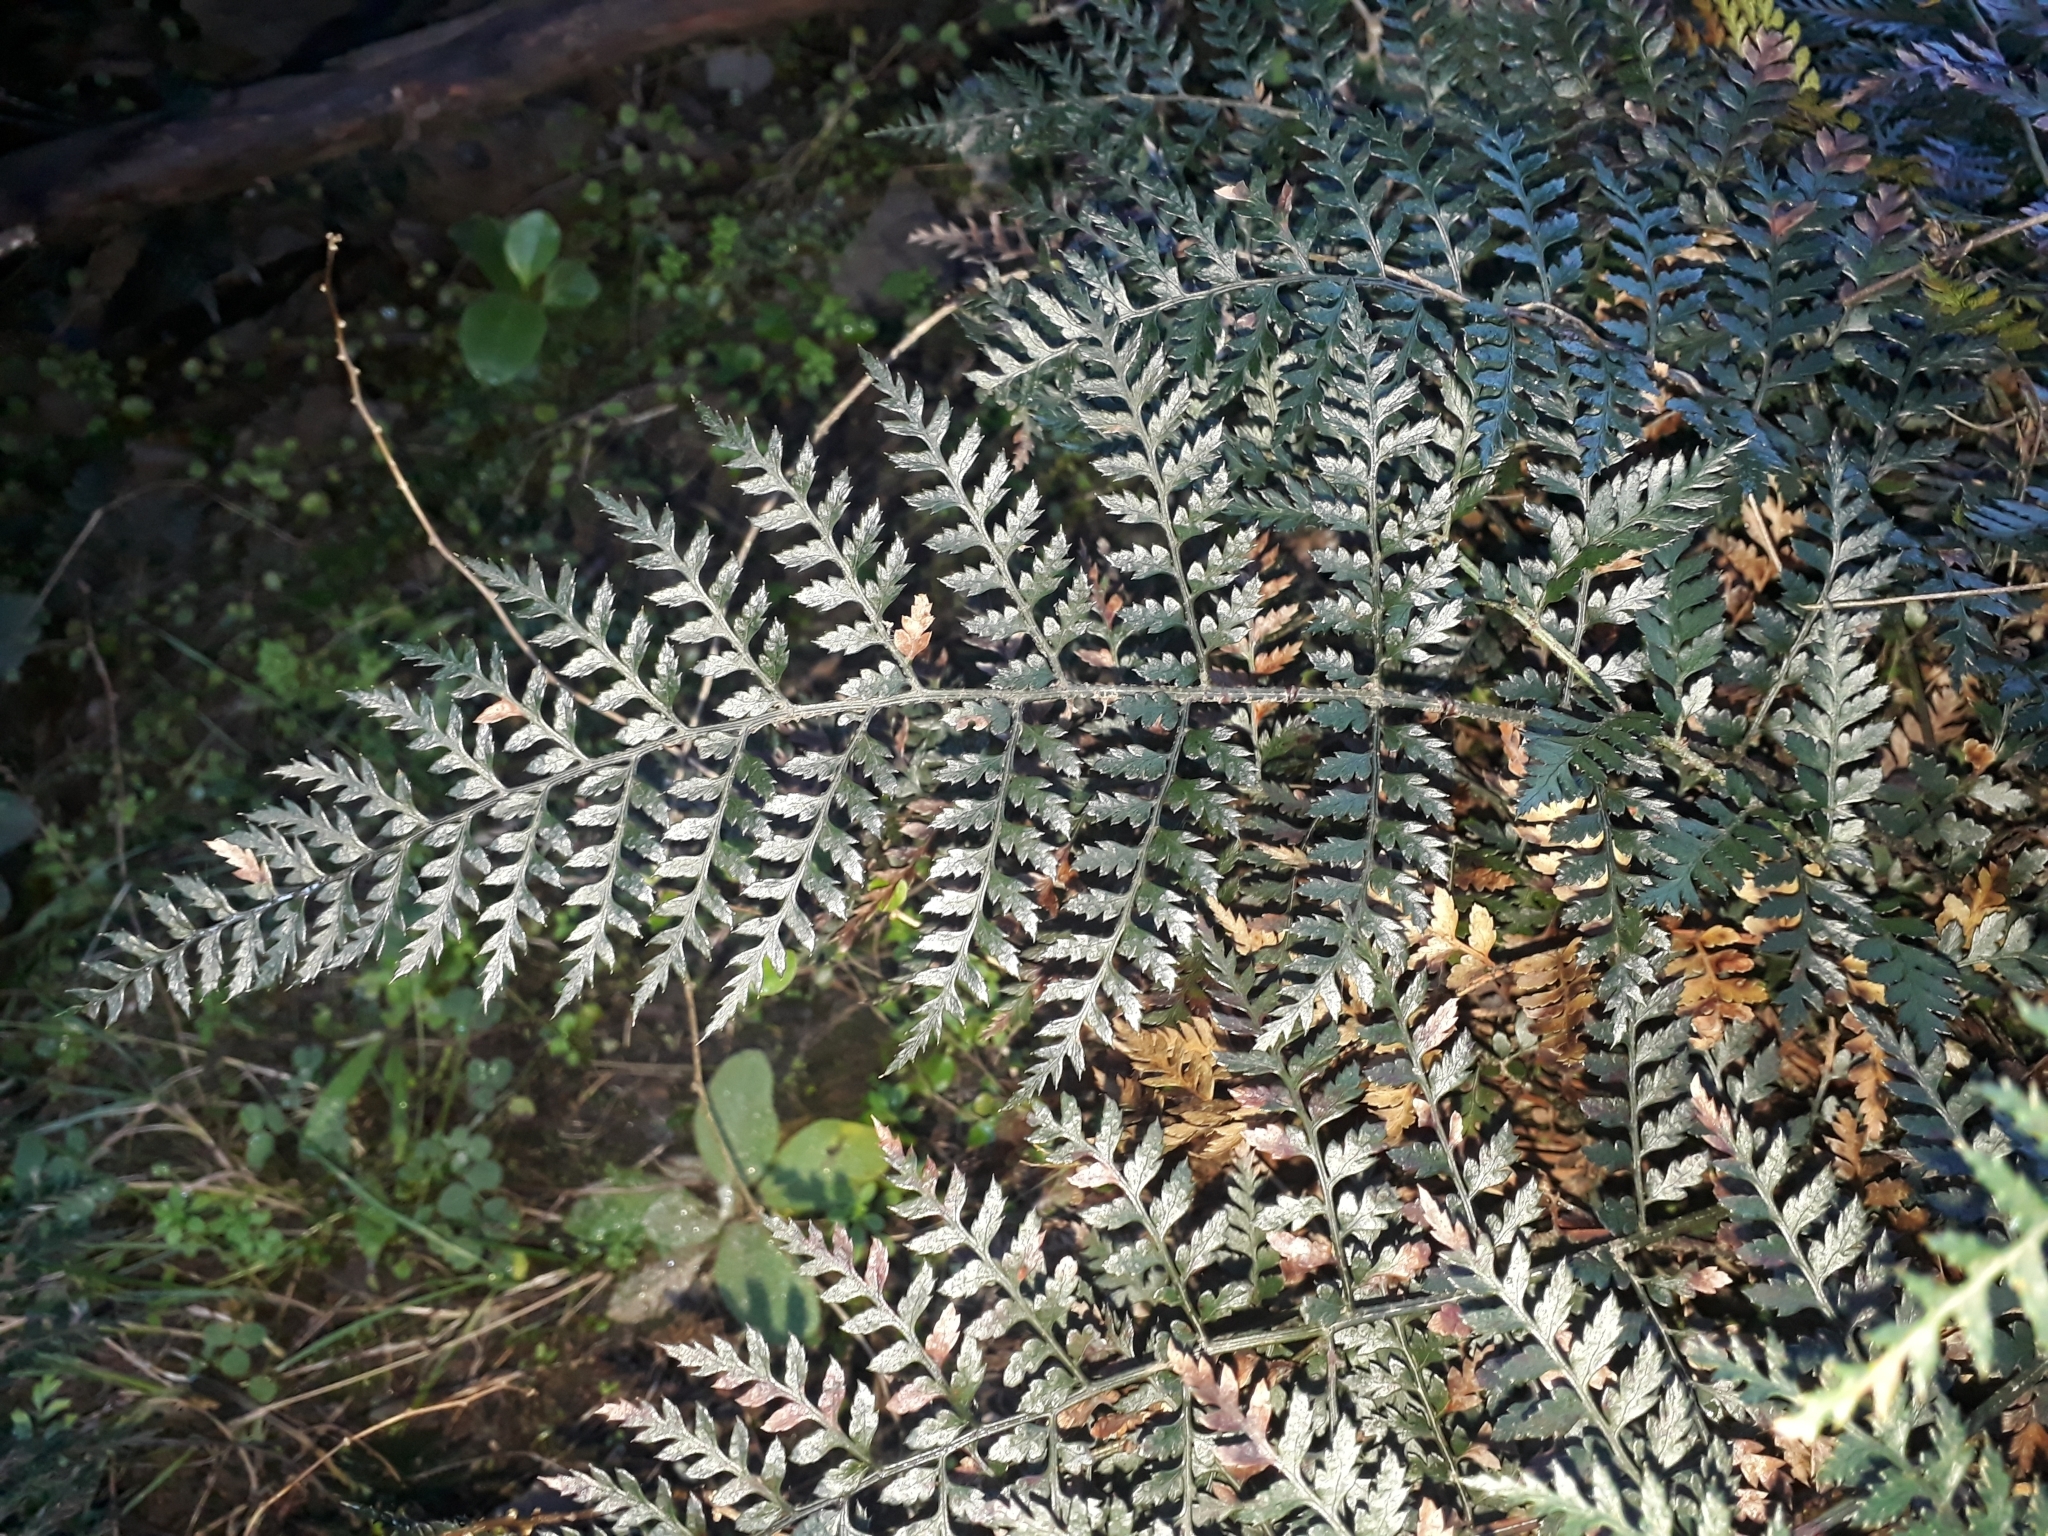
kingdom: Plantae
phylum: Tracheophyta
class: Polypodiopsida
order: Polypodiales
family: Dryopteridaceae
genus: Polystichum
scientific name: Polystichum oculatum
